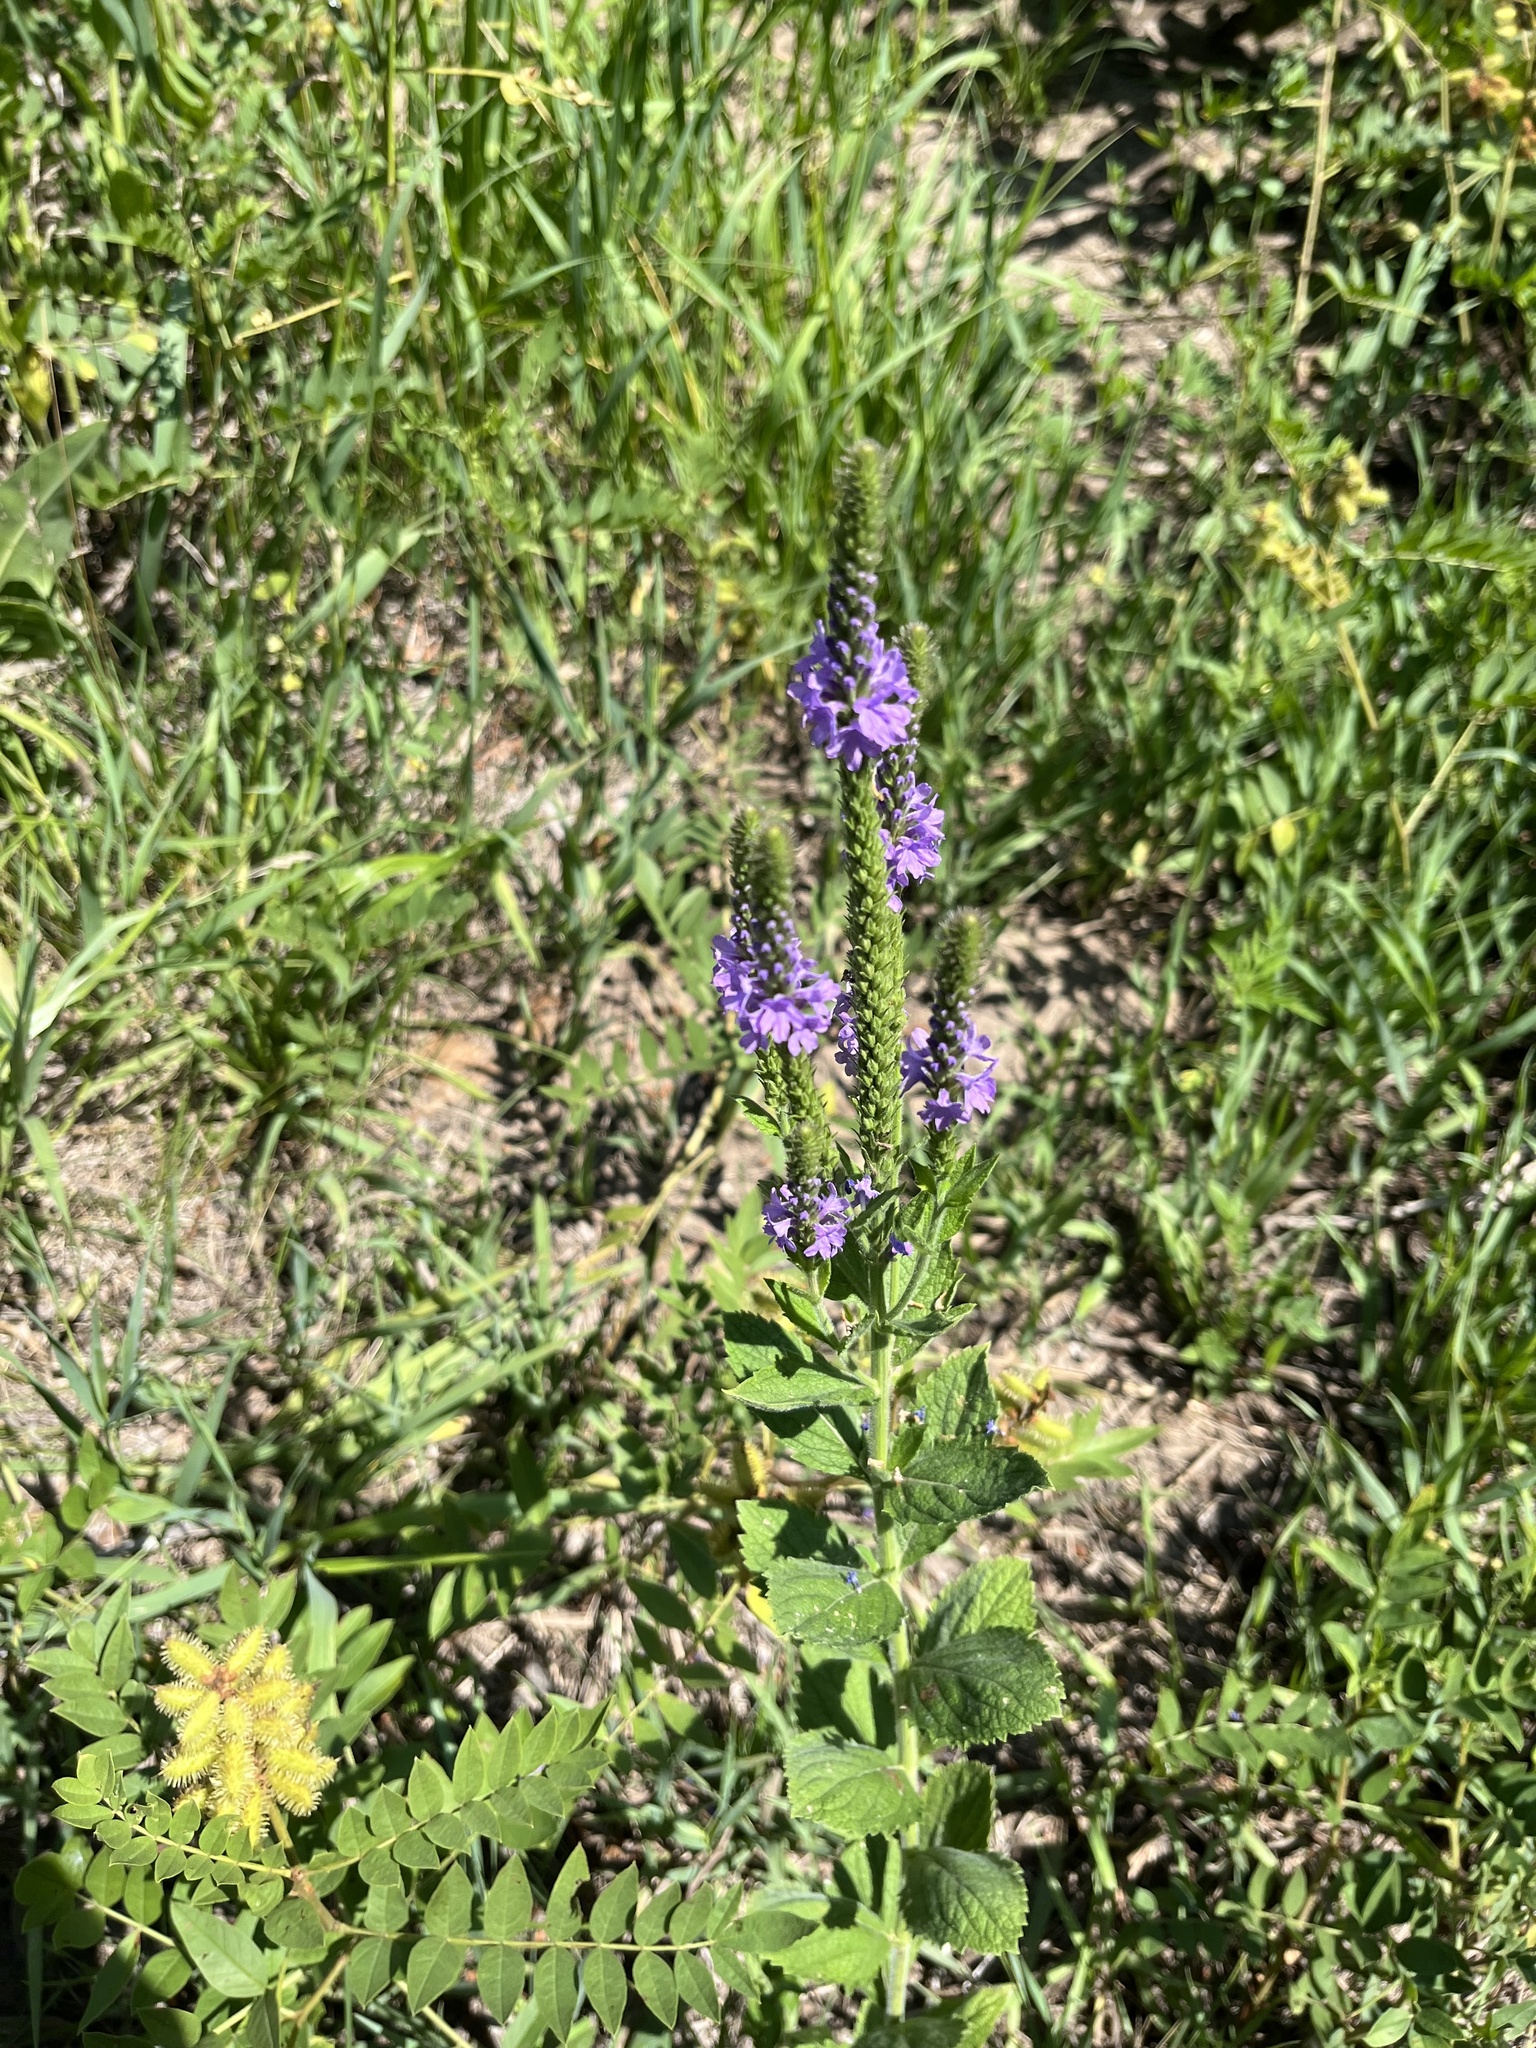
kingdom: Plantae
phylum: Tracheophyta
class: Magnoliopsida
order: Lamiales
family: Verbenaceae
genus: Verbena
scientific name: Verbena stricta
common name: Hoary vervain
